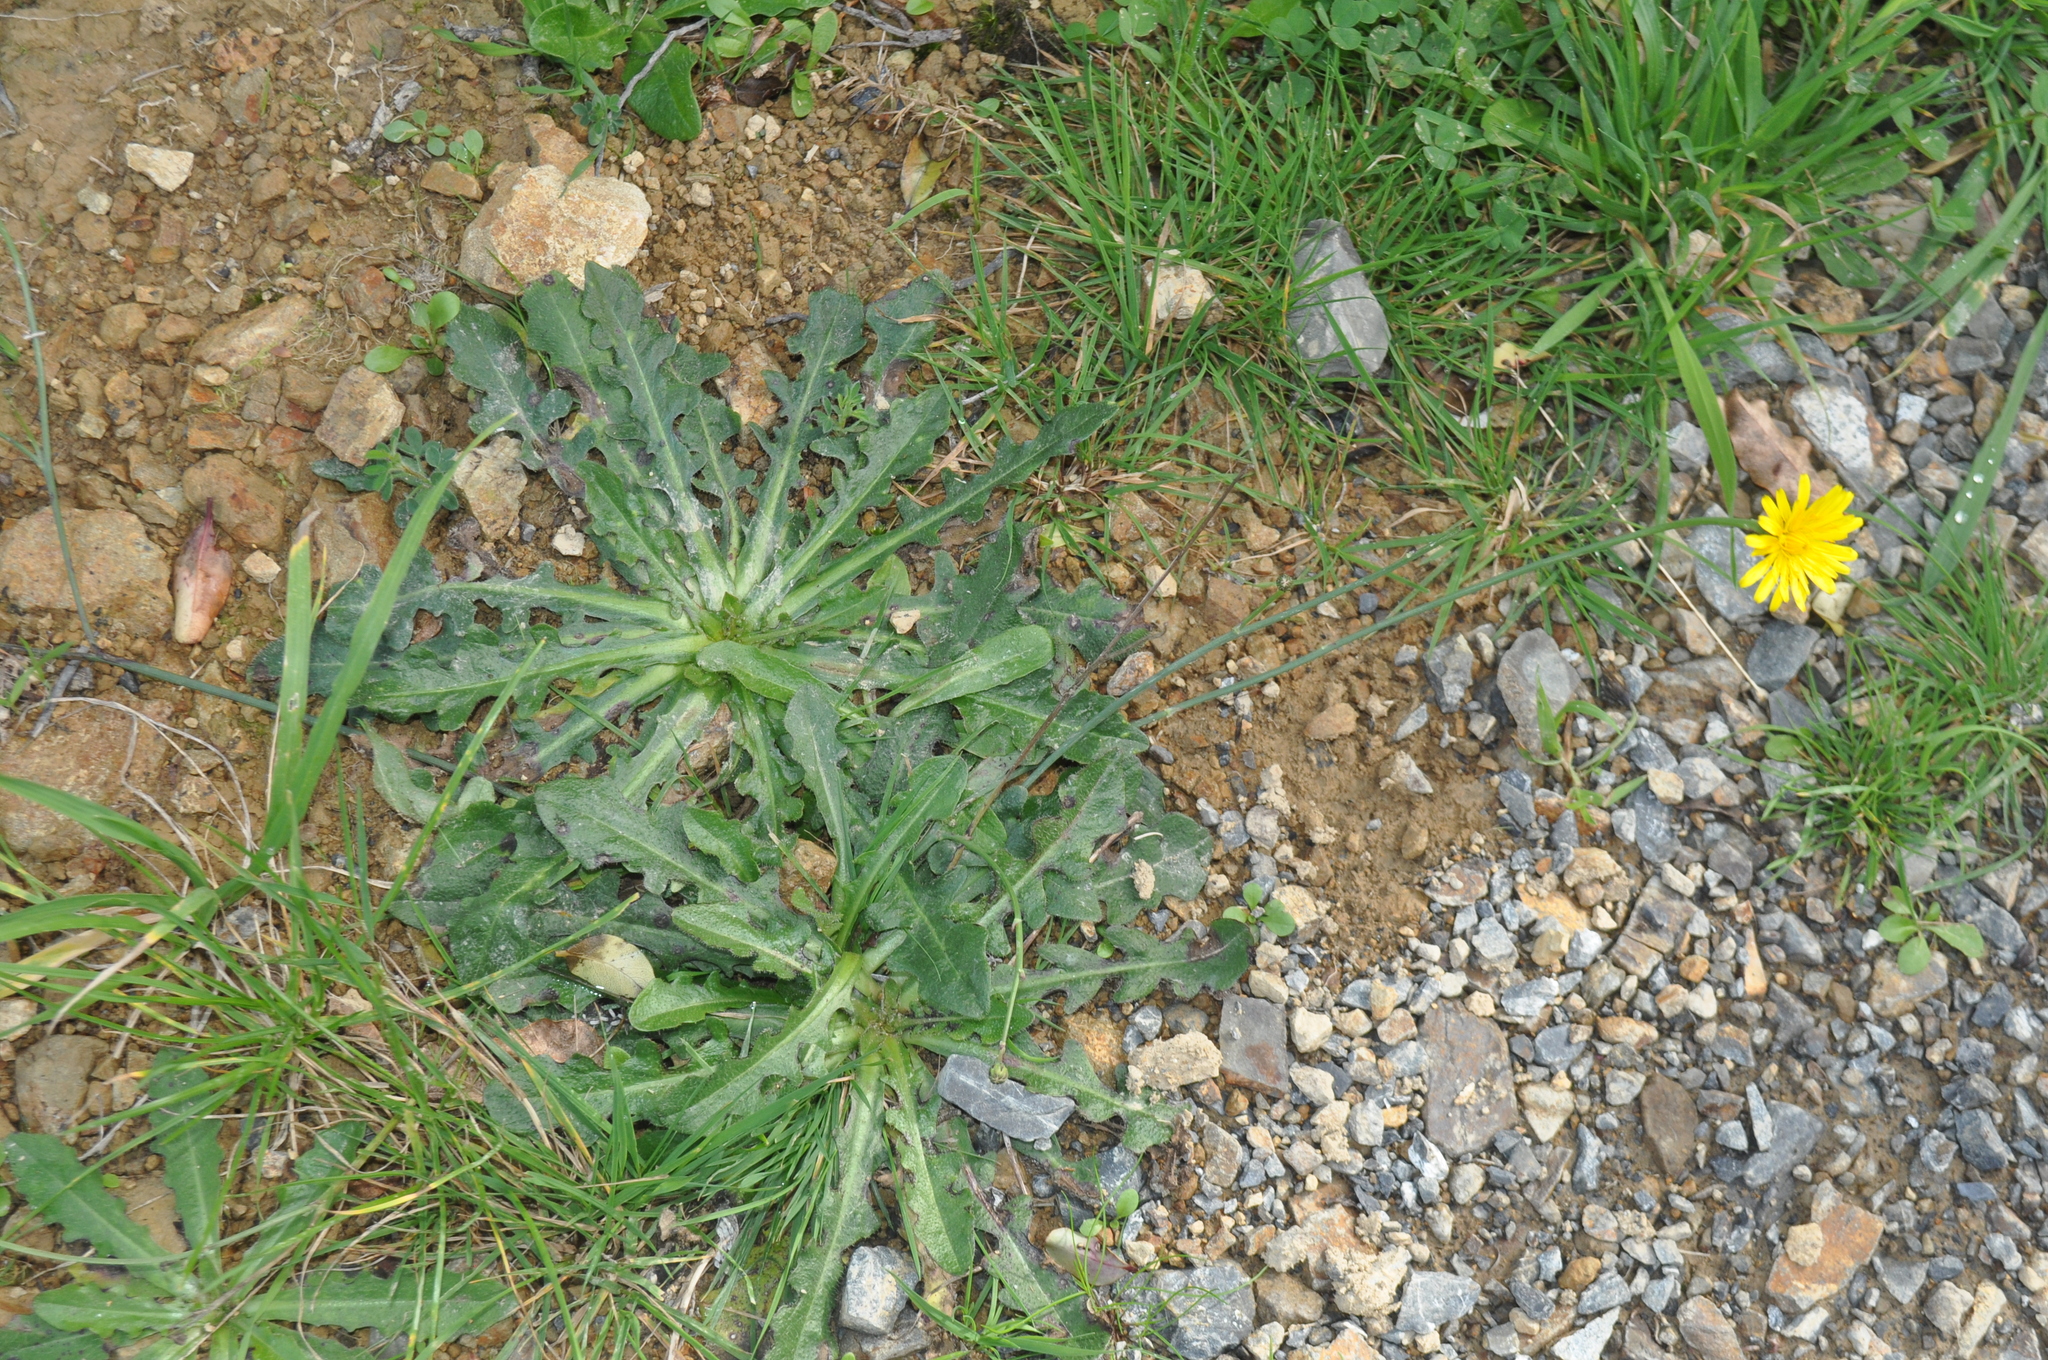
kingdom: Plantae
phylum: Tracheophyta
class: Magnoliopsida
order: Asterales
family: Asteraceae
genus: Hypochaeris
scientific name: Hypochaeris radicata
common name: Flatweed
